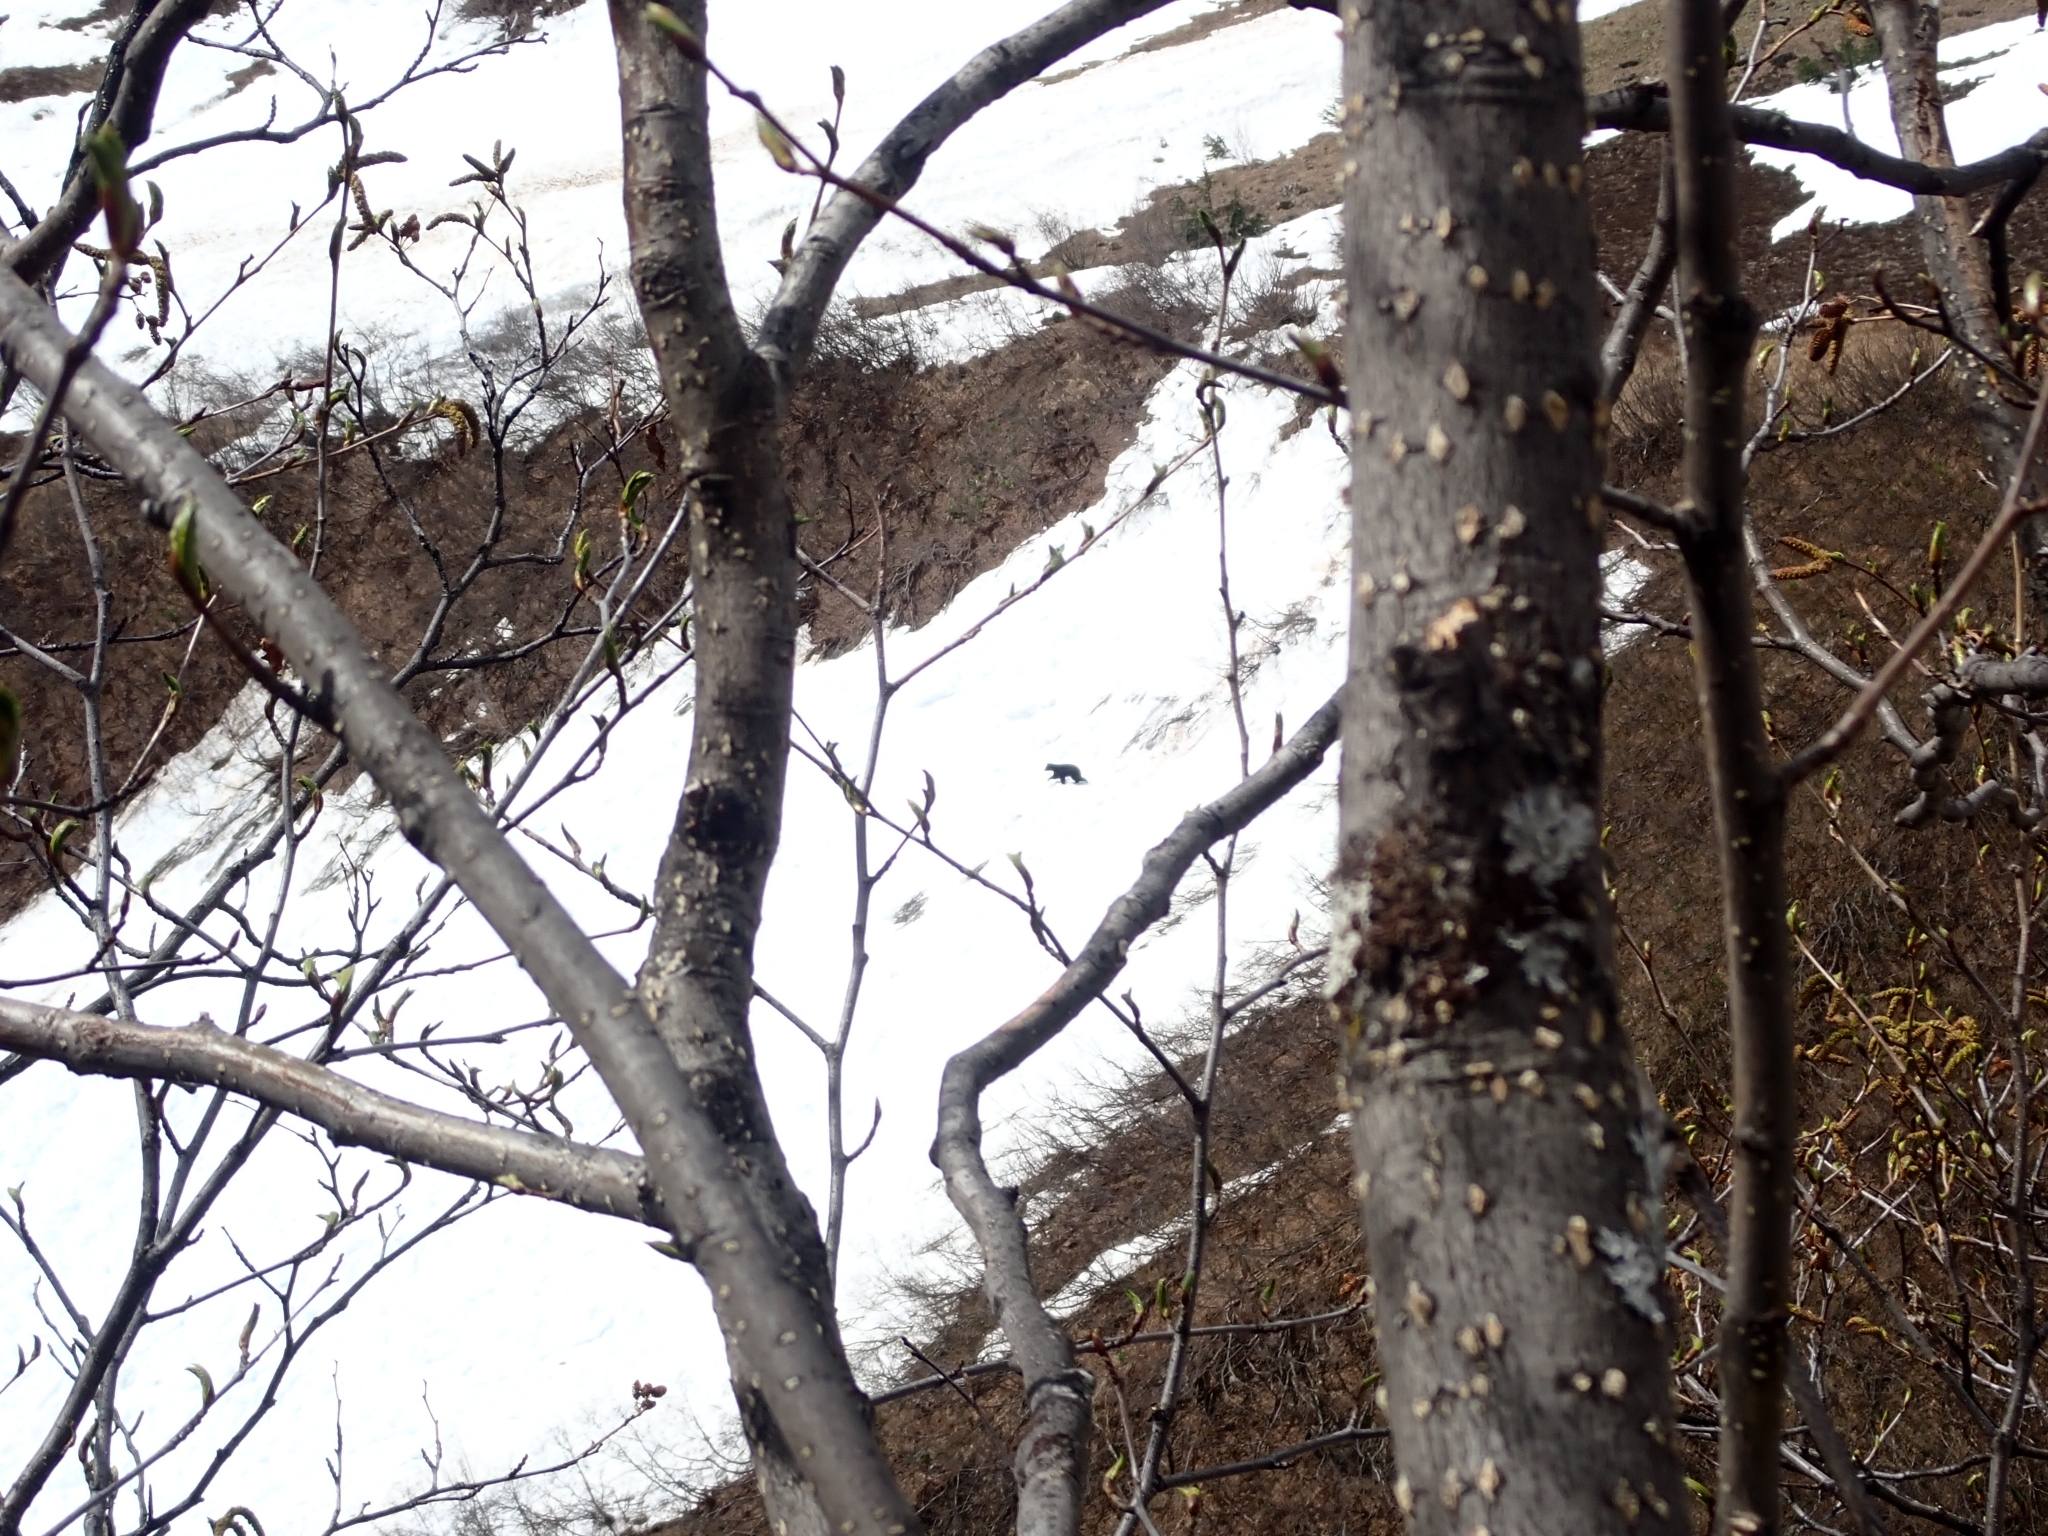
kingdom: Animalia
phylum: Chordata
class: Mammalia
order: Carnivora
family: Ursidae
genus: Ursus
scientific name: Ursus americanus
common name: American black bear
